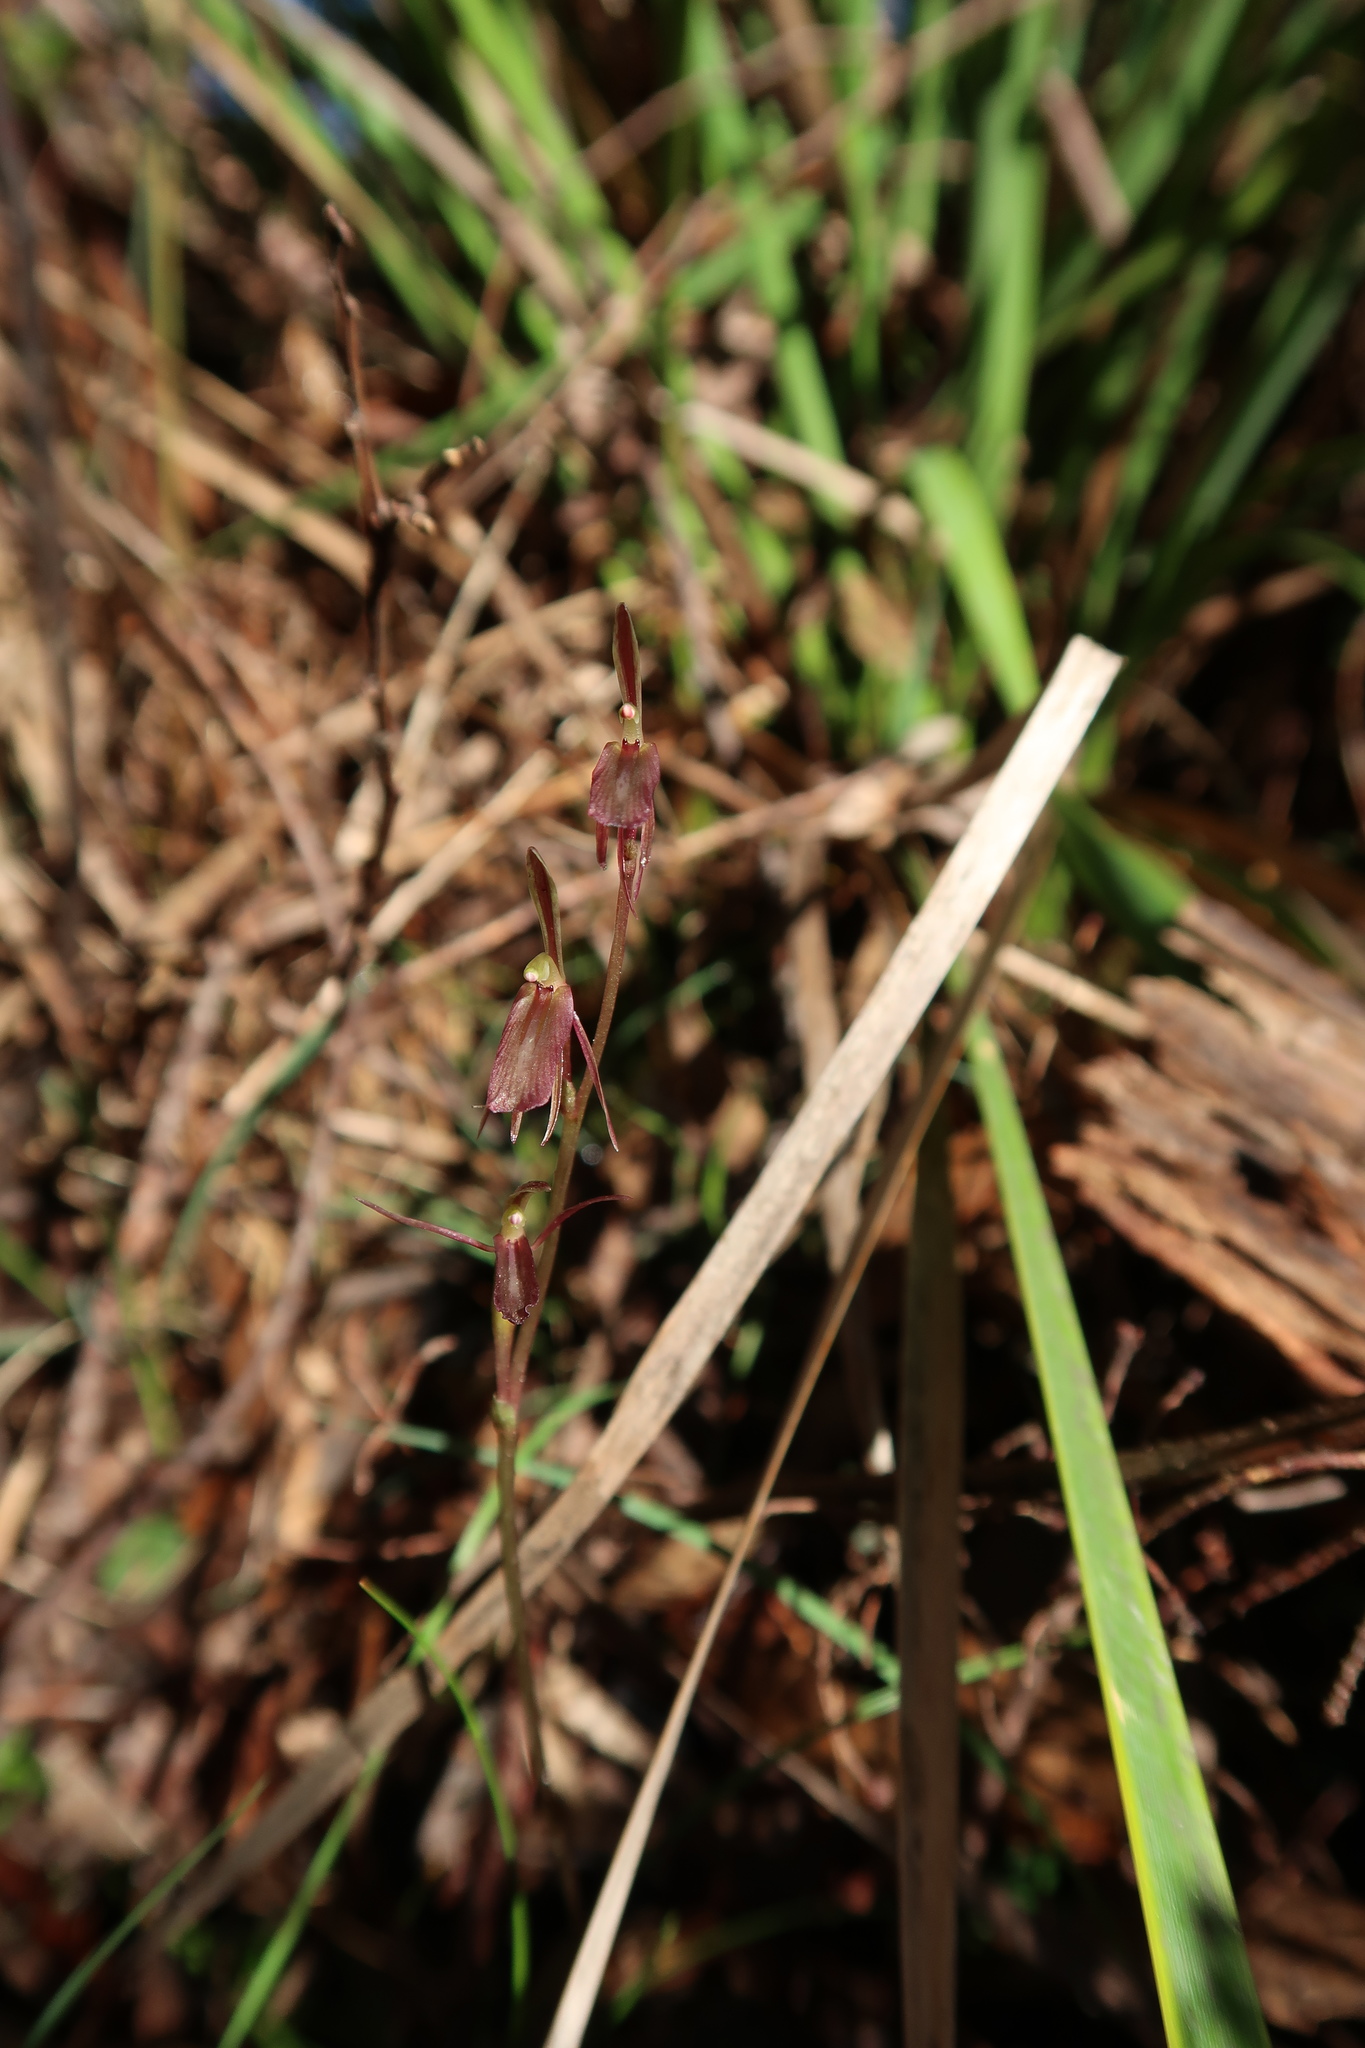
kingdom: Plantae
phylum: Tracheophyta
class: Liliopsida
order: Asparagales
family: Orchidaceae
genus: Cyrtostylis
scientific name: Cyrtostylis reniformis
